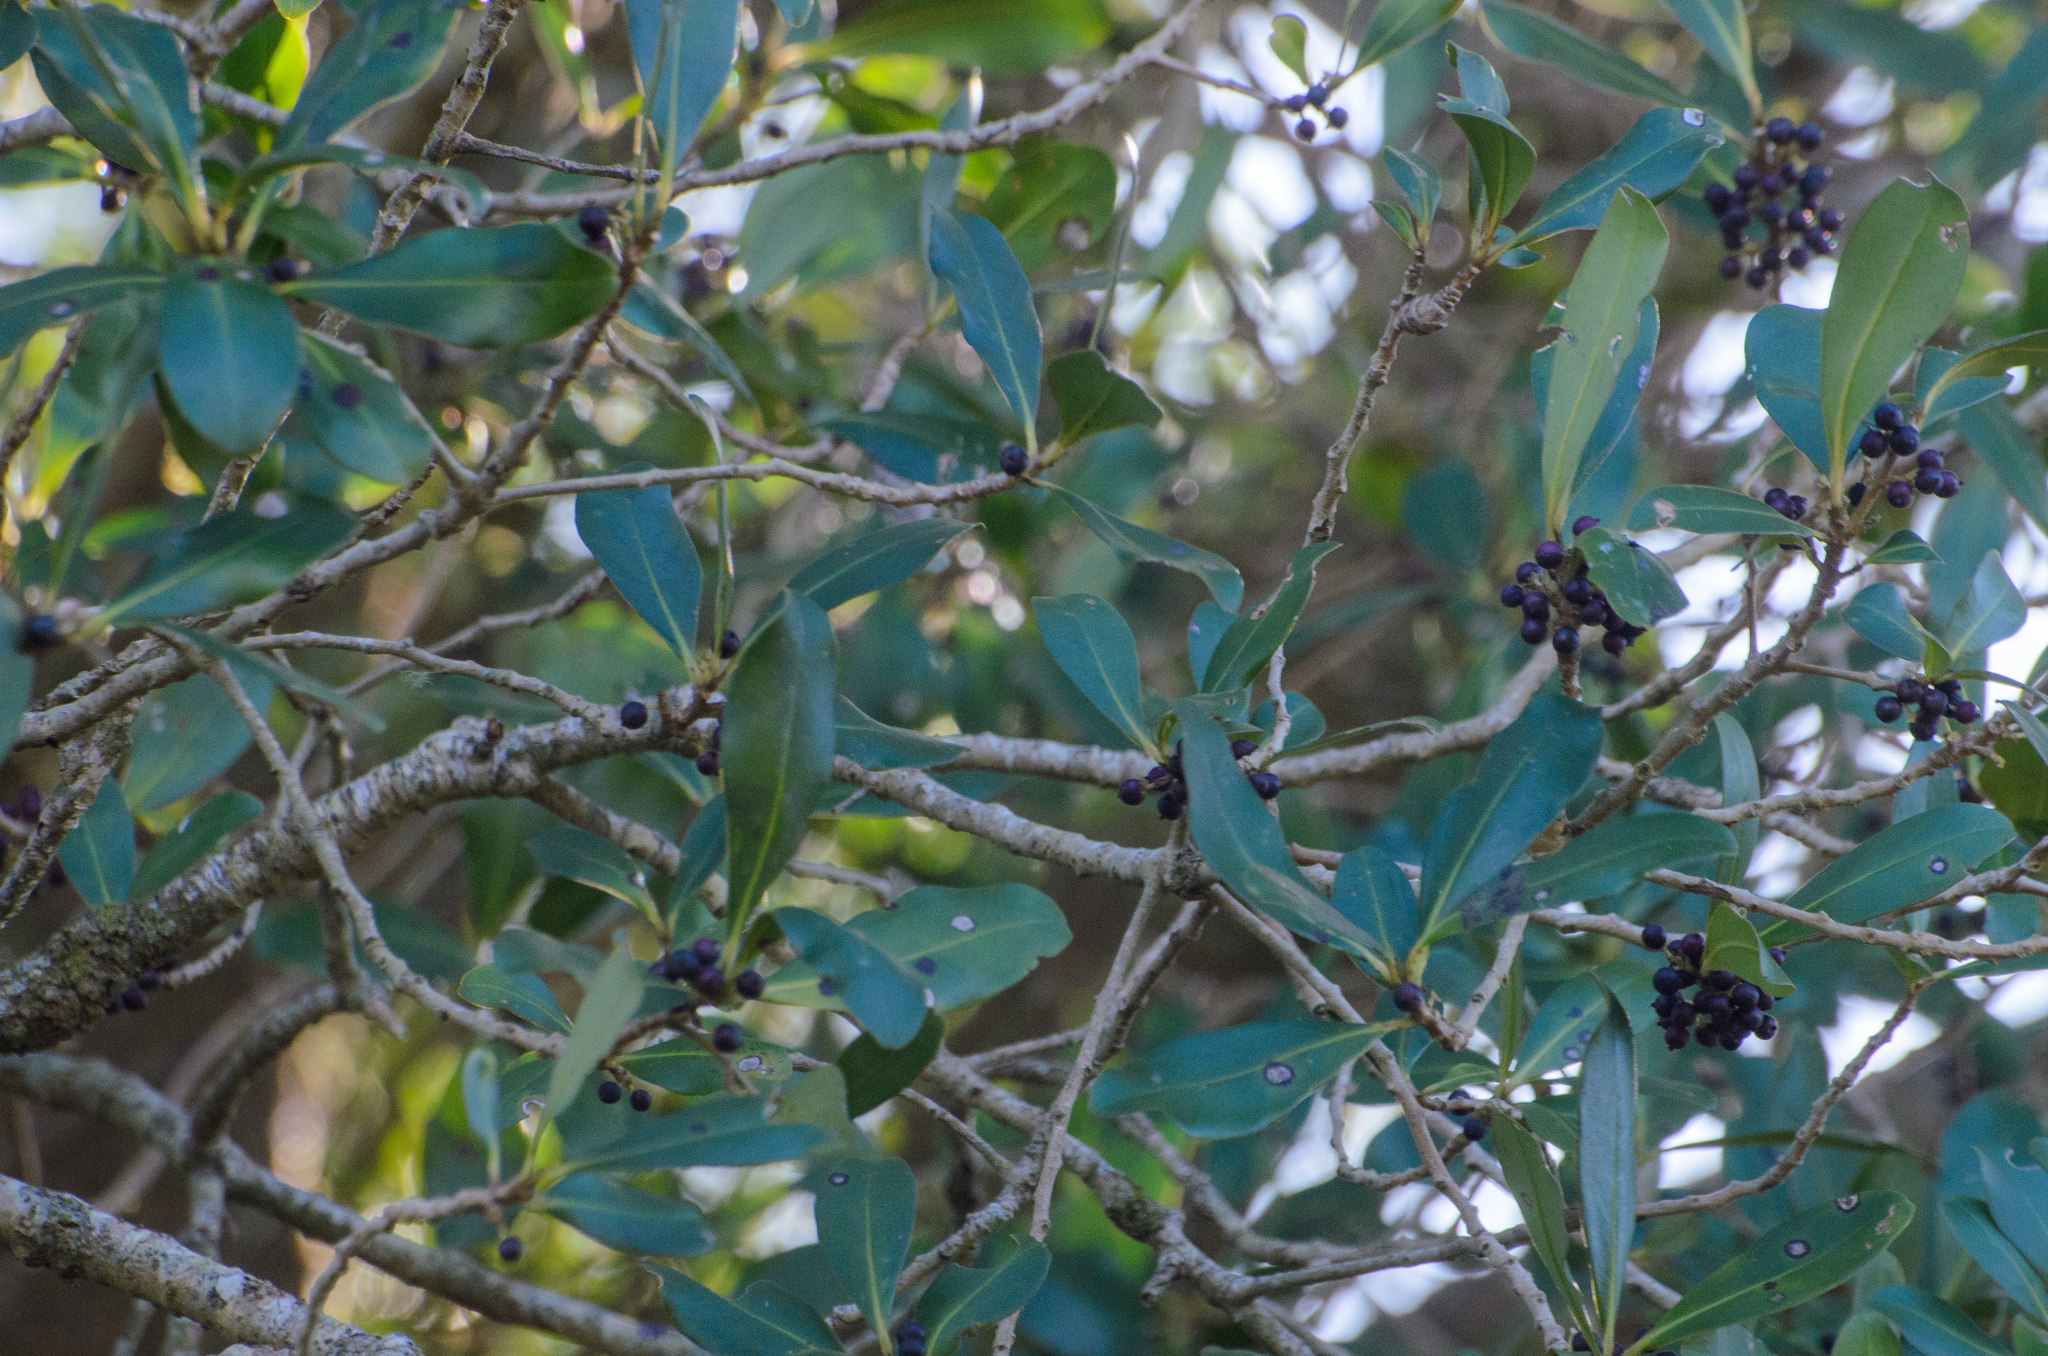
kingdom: Plantae
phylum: Tracheophyta
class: Magnoliopsida
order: Ericales
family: Primulaceae
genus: Myrsine
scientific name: Myrsine laetevirens
